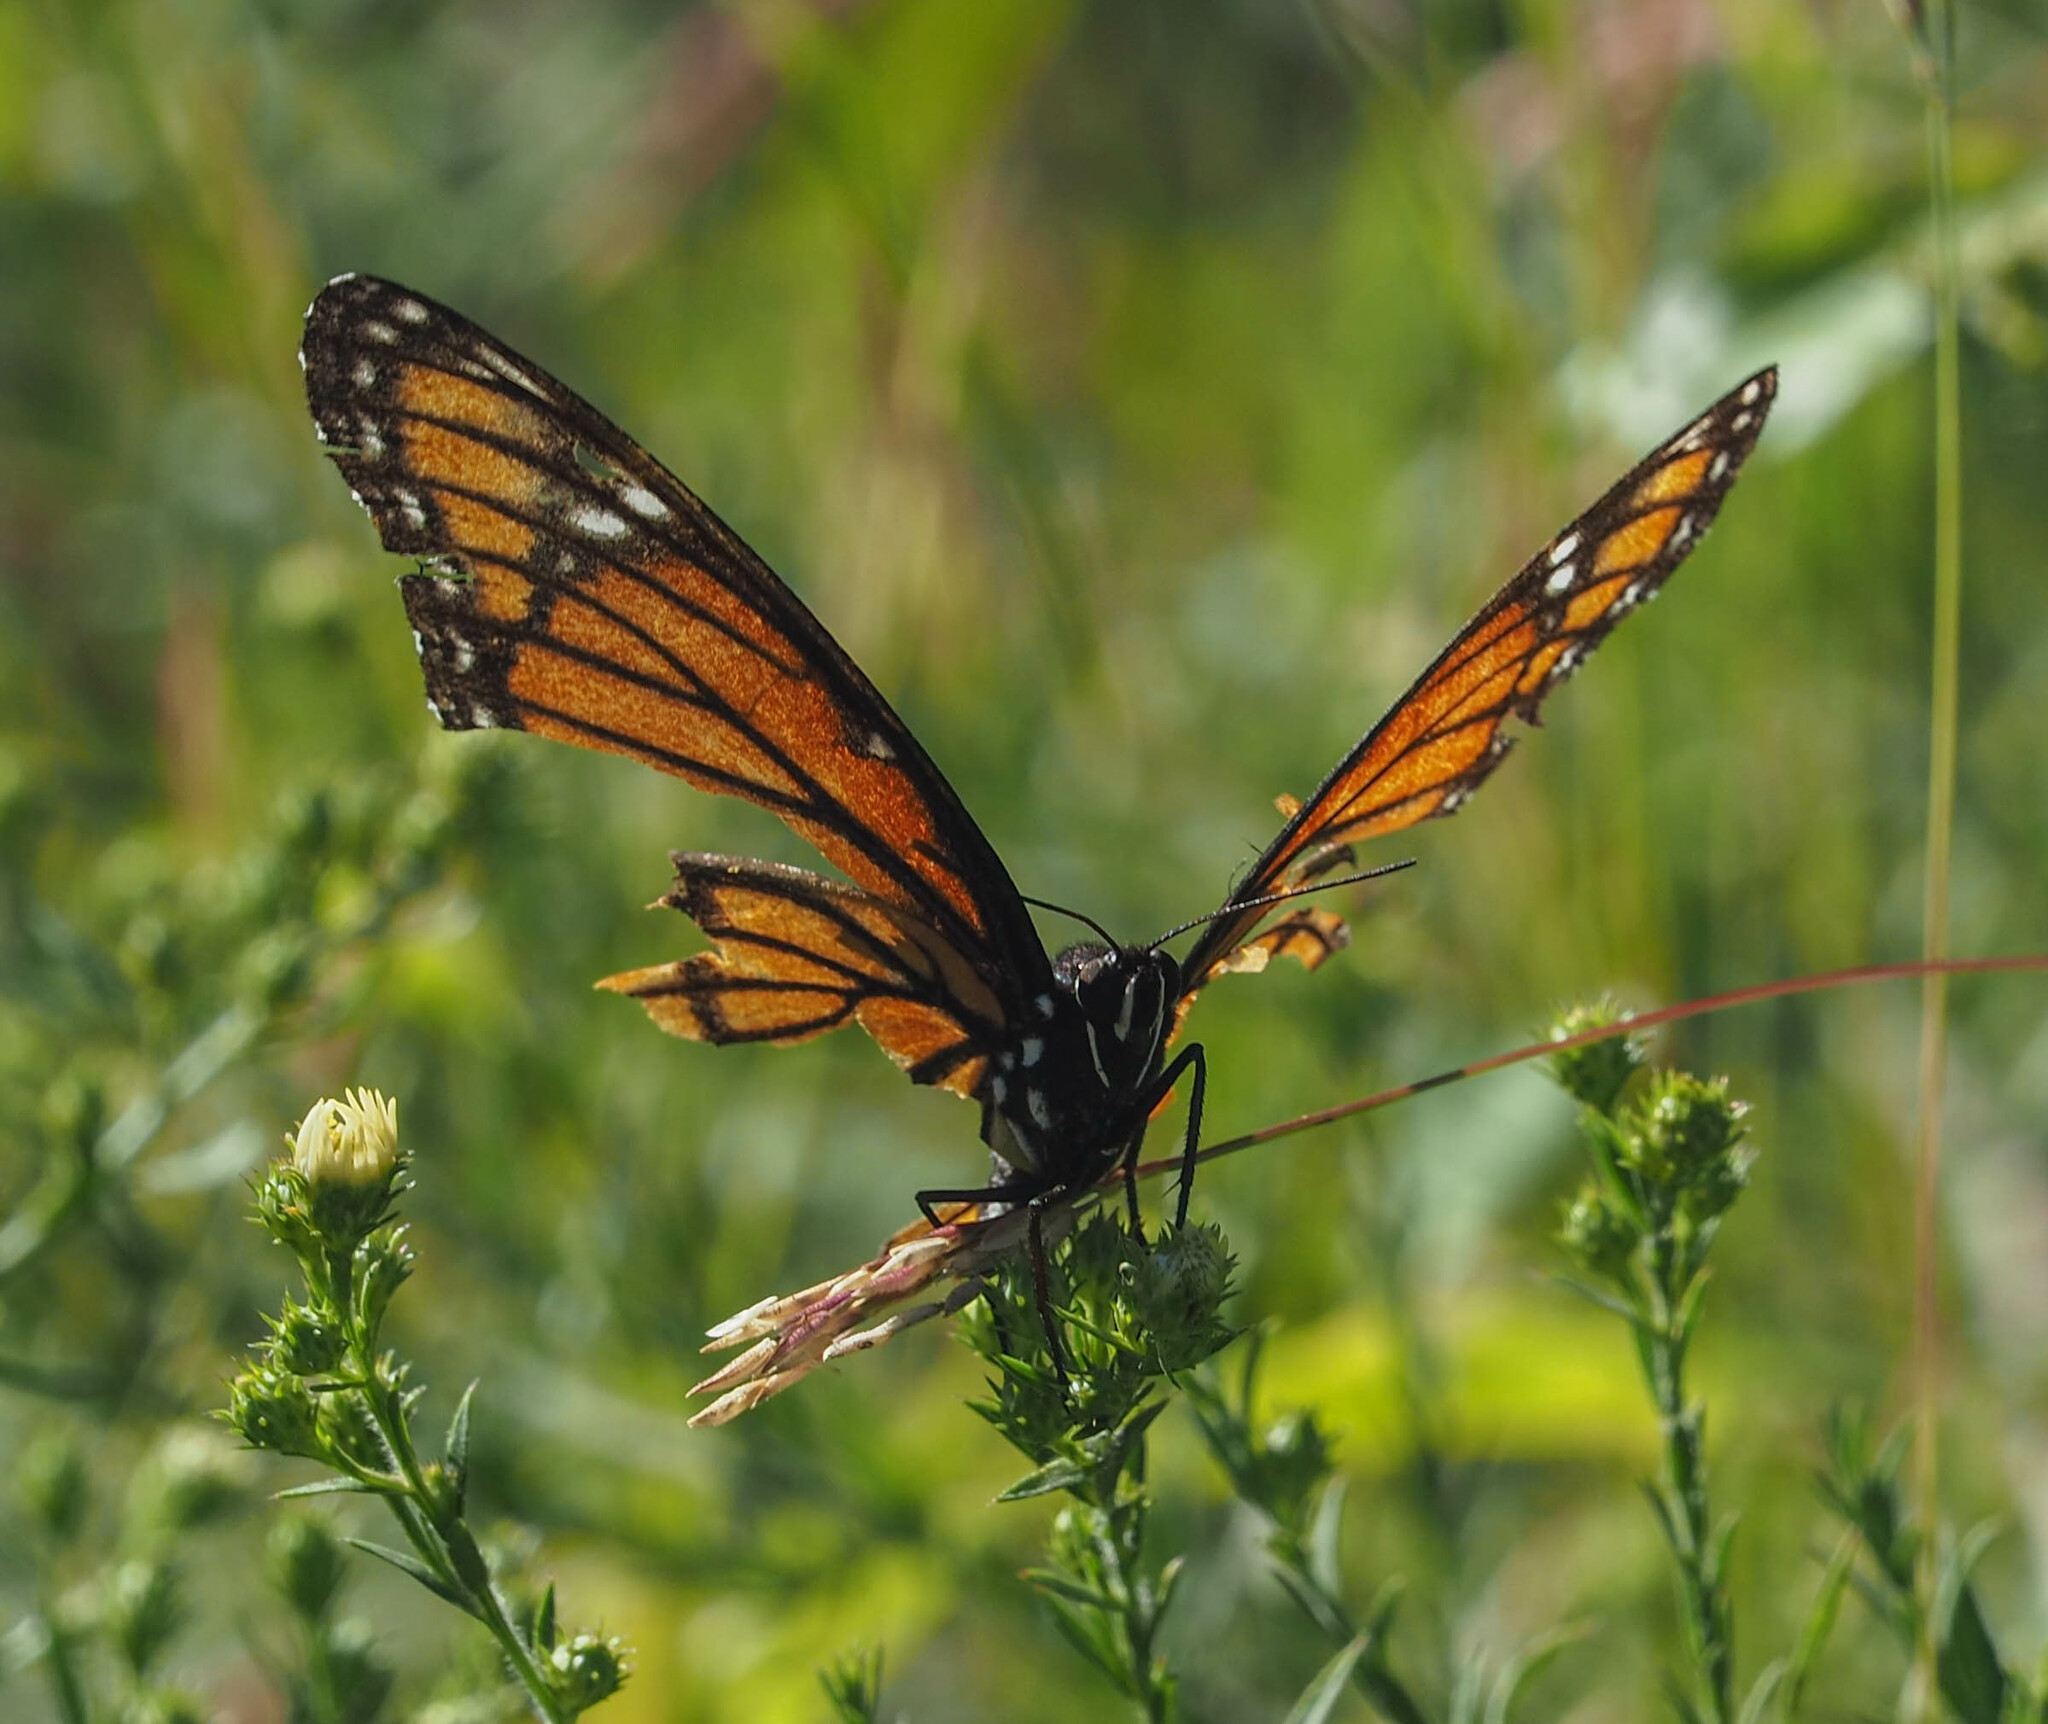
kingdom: Animalia
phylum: Arthropoda
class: Insecta
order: Lepidoptera
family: Nymphalidae
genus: Limenitis
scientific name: Limenitis archippus
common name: Viceroy
